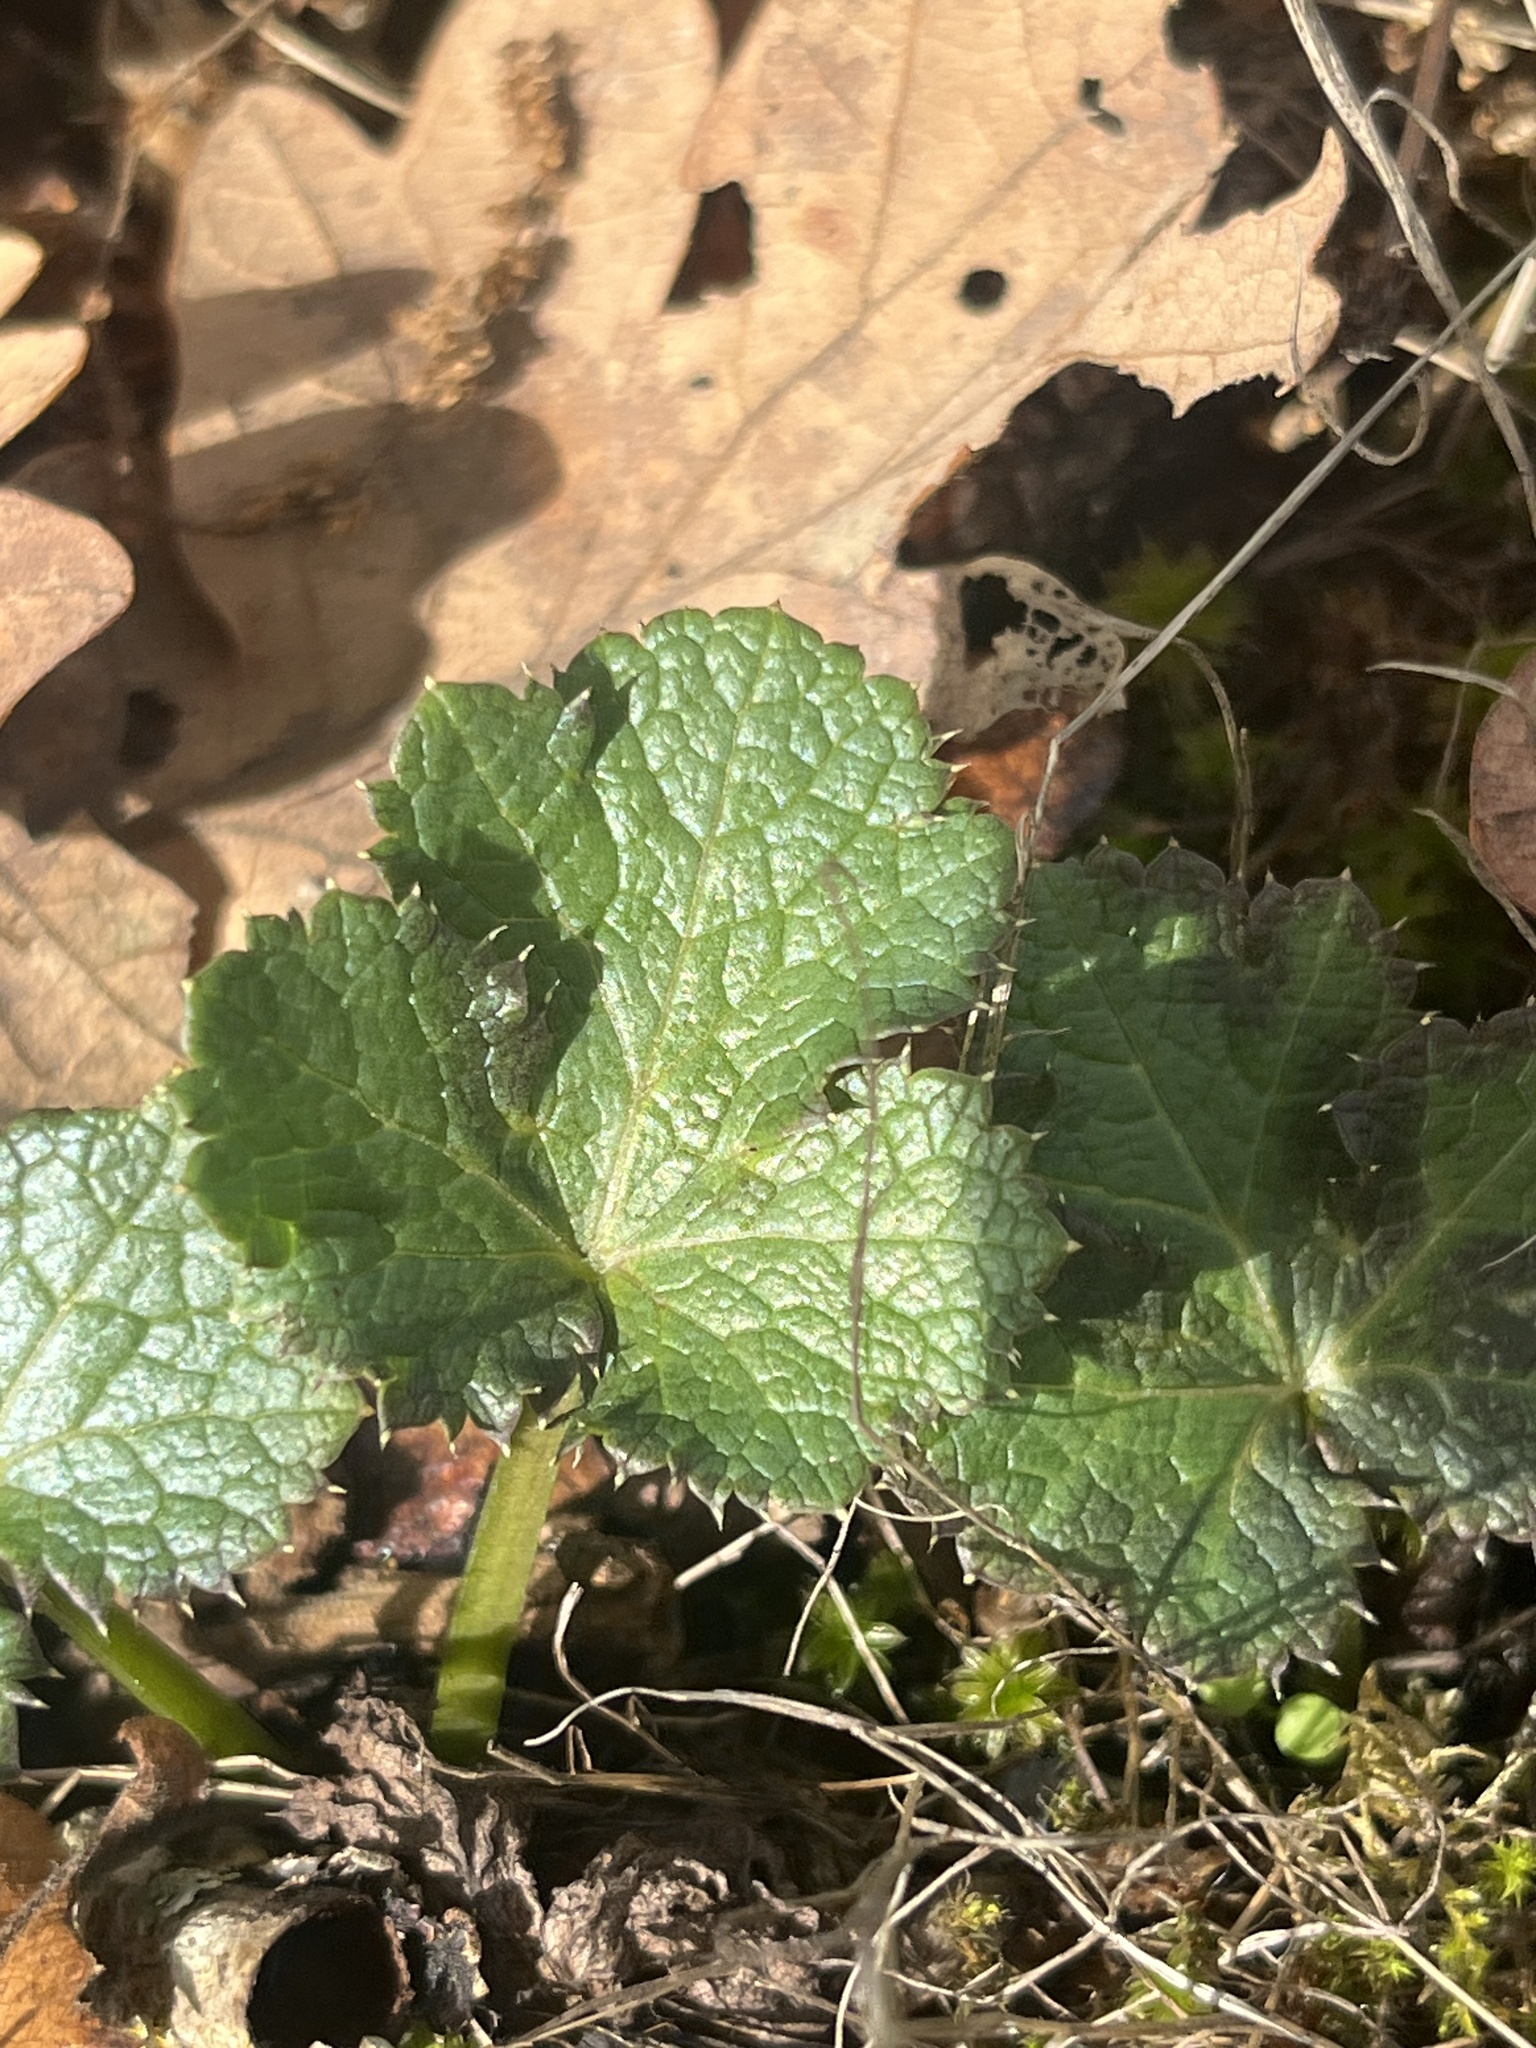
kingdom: Plantae
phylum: Tracheophyta
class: Magnoliopsida
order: Apiales
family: Apiaceae
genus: Sanicula
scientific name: Sanicula crassicaulis
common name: Western snakeroot
